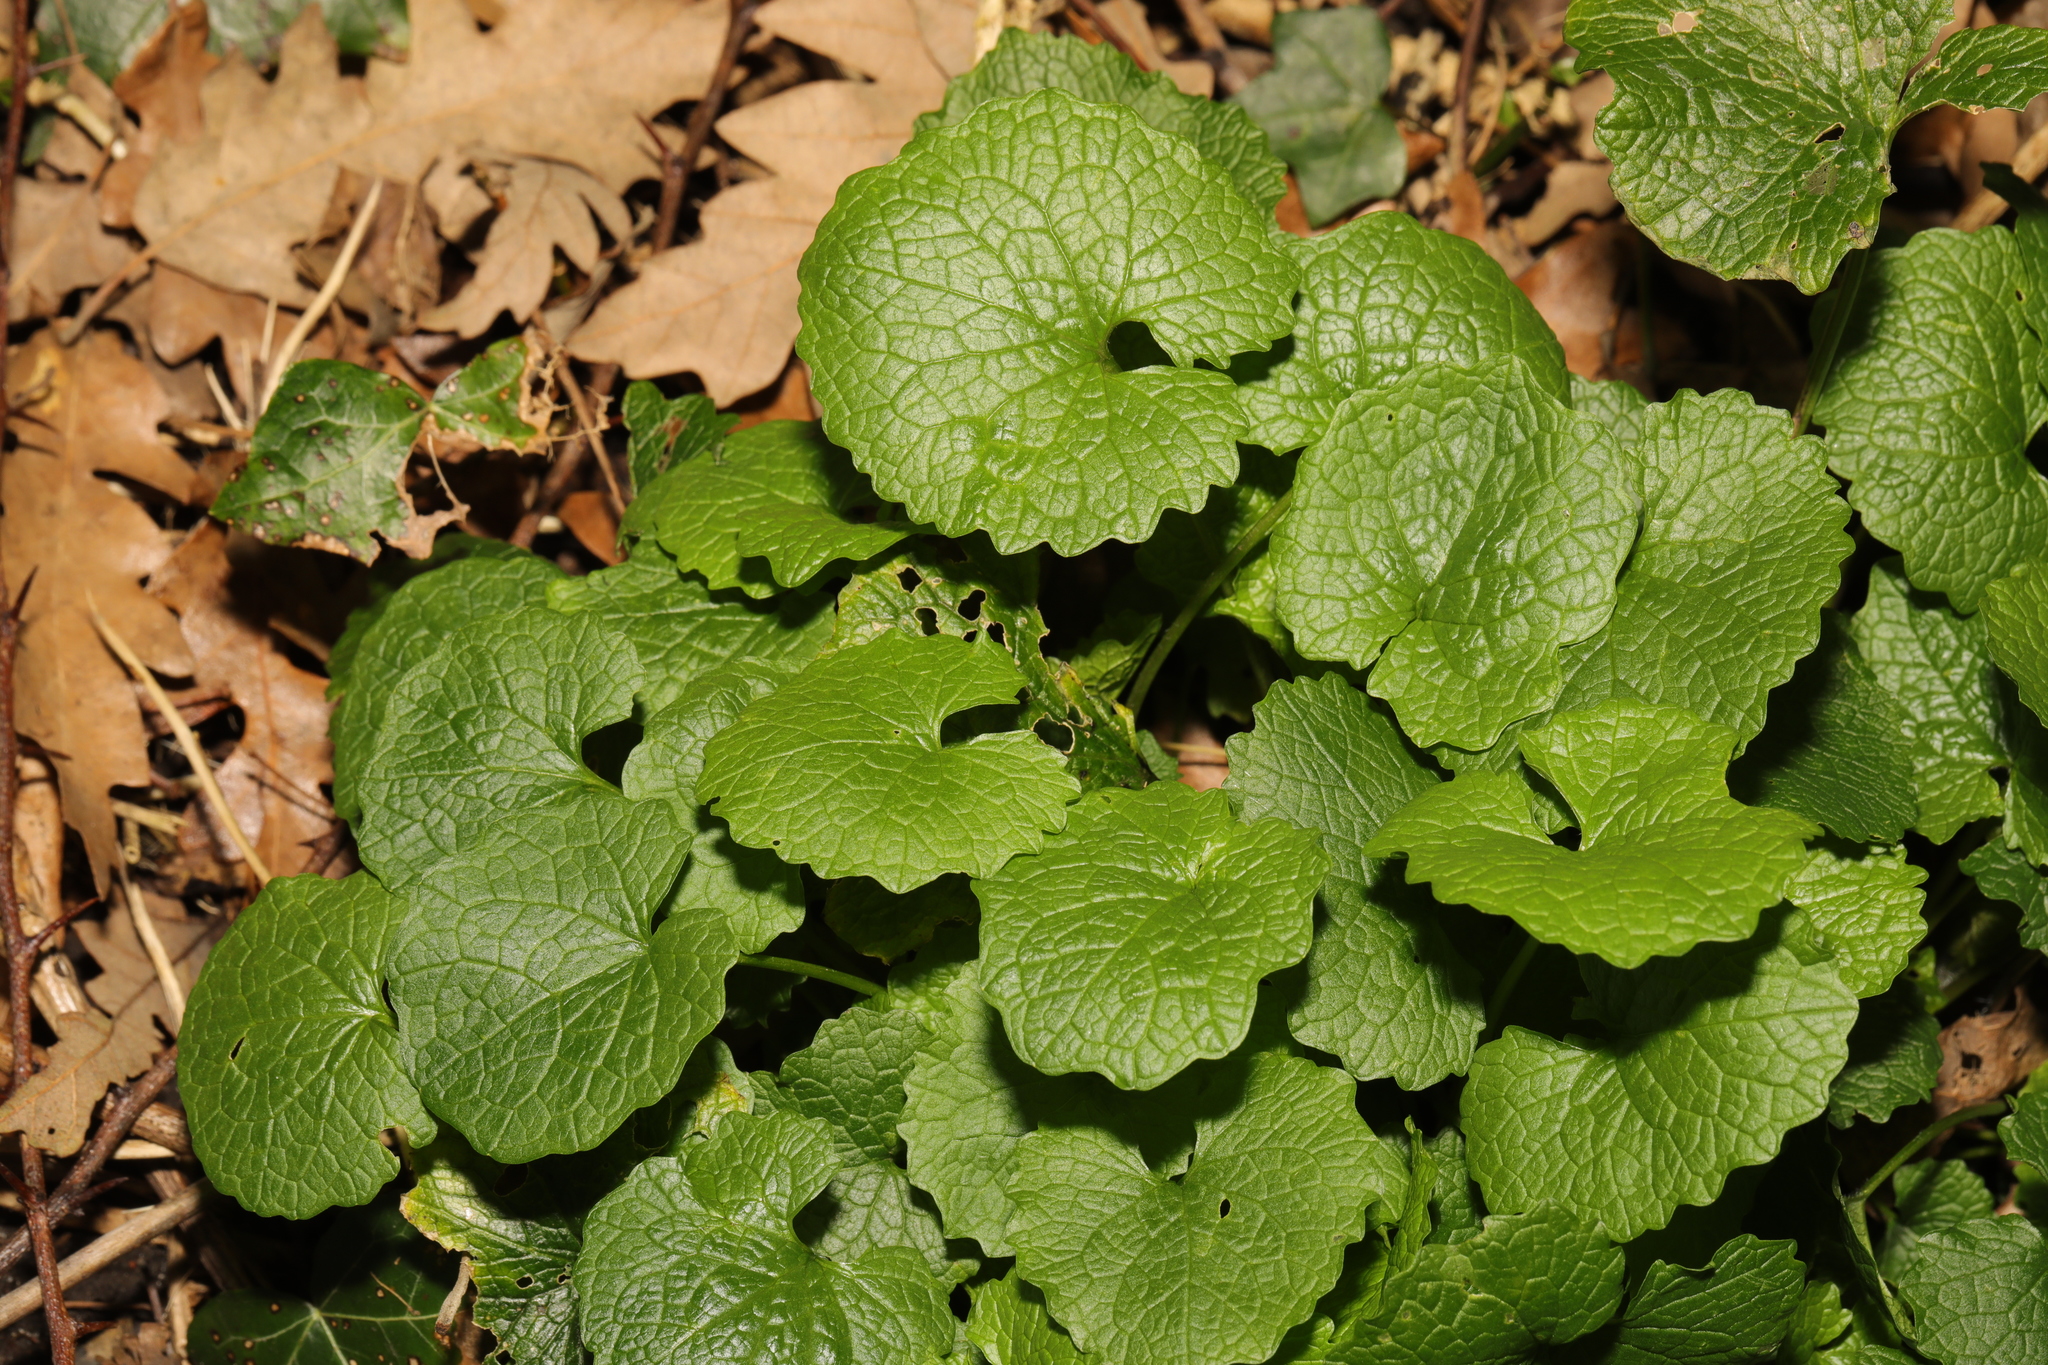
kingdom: Plantae
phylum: Tracheophyta
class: Magnoliopsida
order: Brassicales
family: Brassicaceae
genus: Alliaria
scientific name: Alliaria petiolata
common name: Garlic mustard
